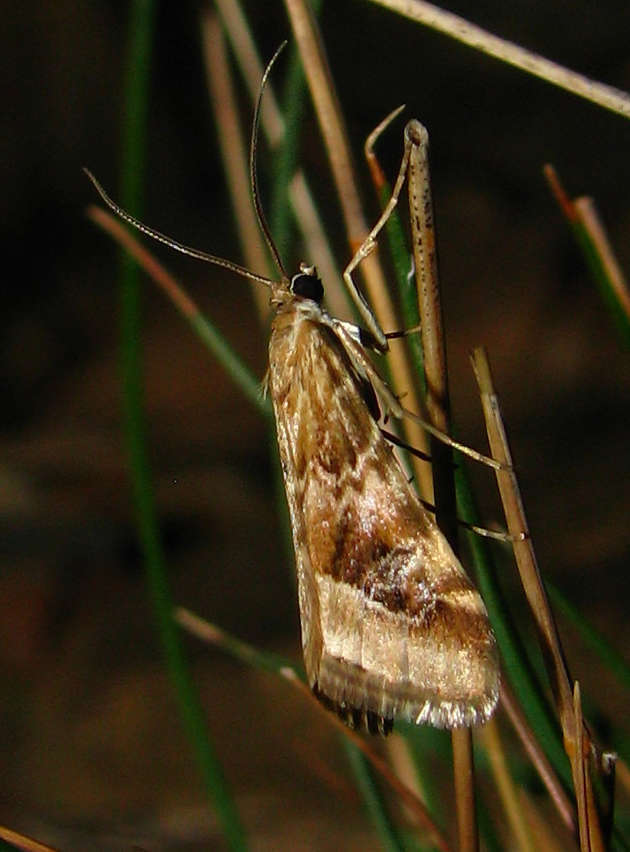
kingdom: Animalia
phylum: Arthropoda
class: Insecta
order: Lepidoptera
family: Crambidae
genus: Hellula
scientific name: Hellula hydralis
